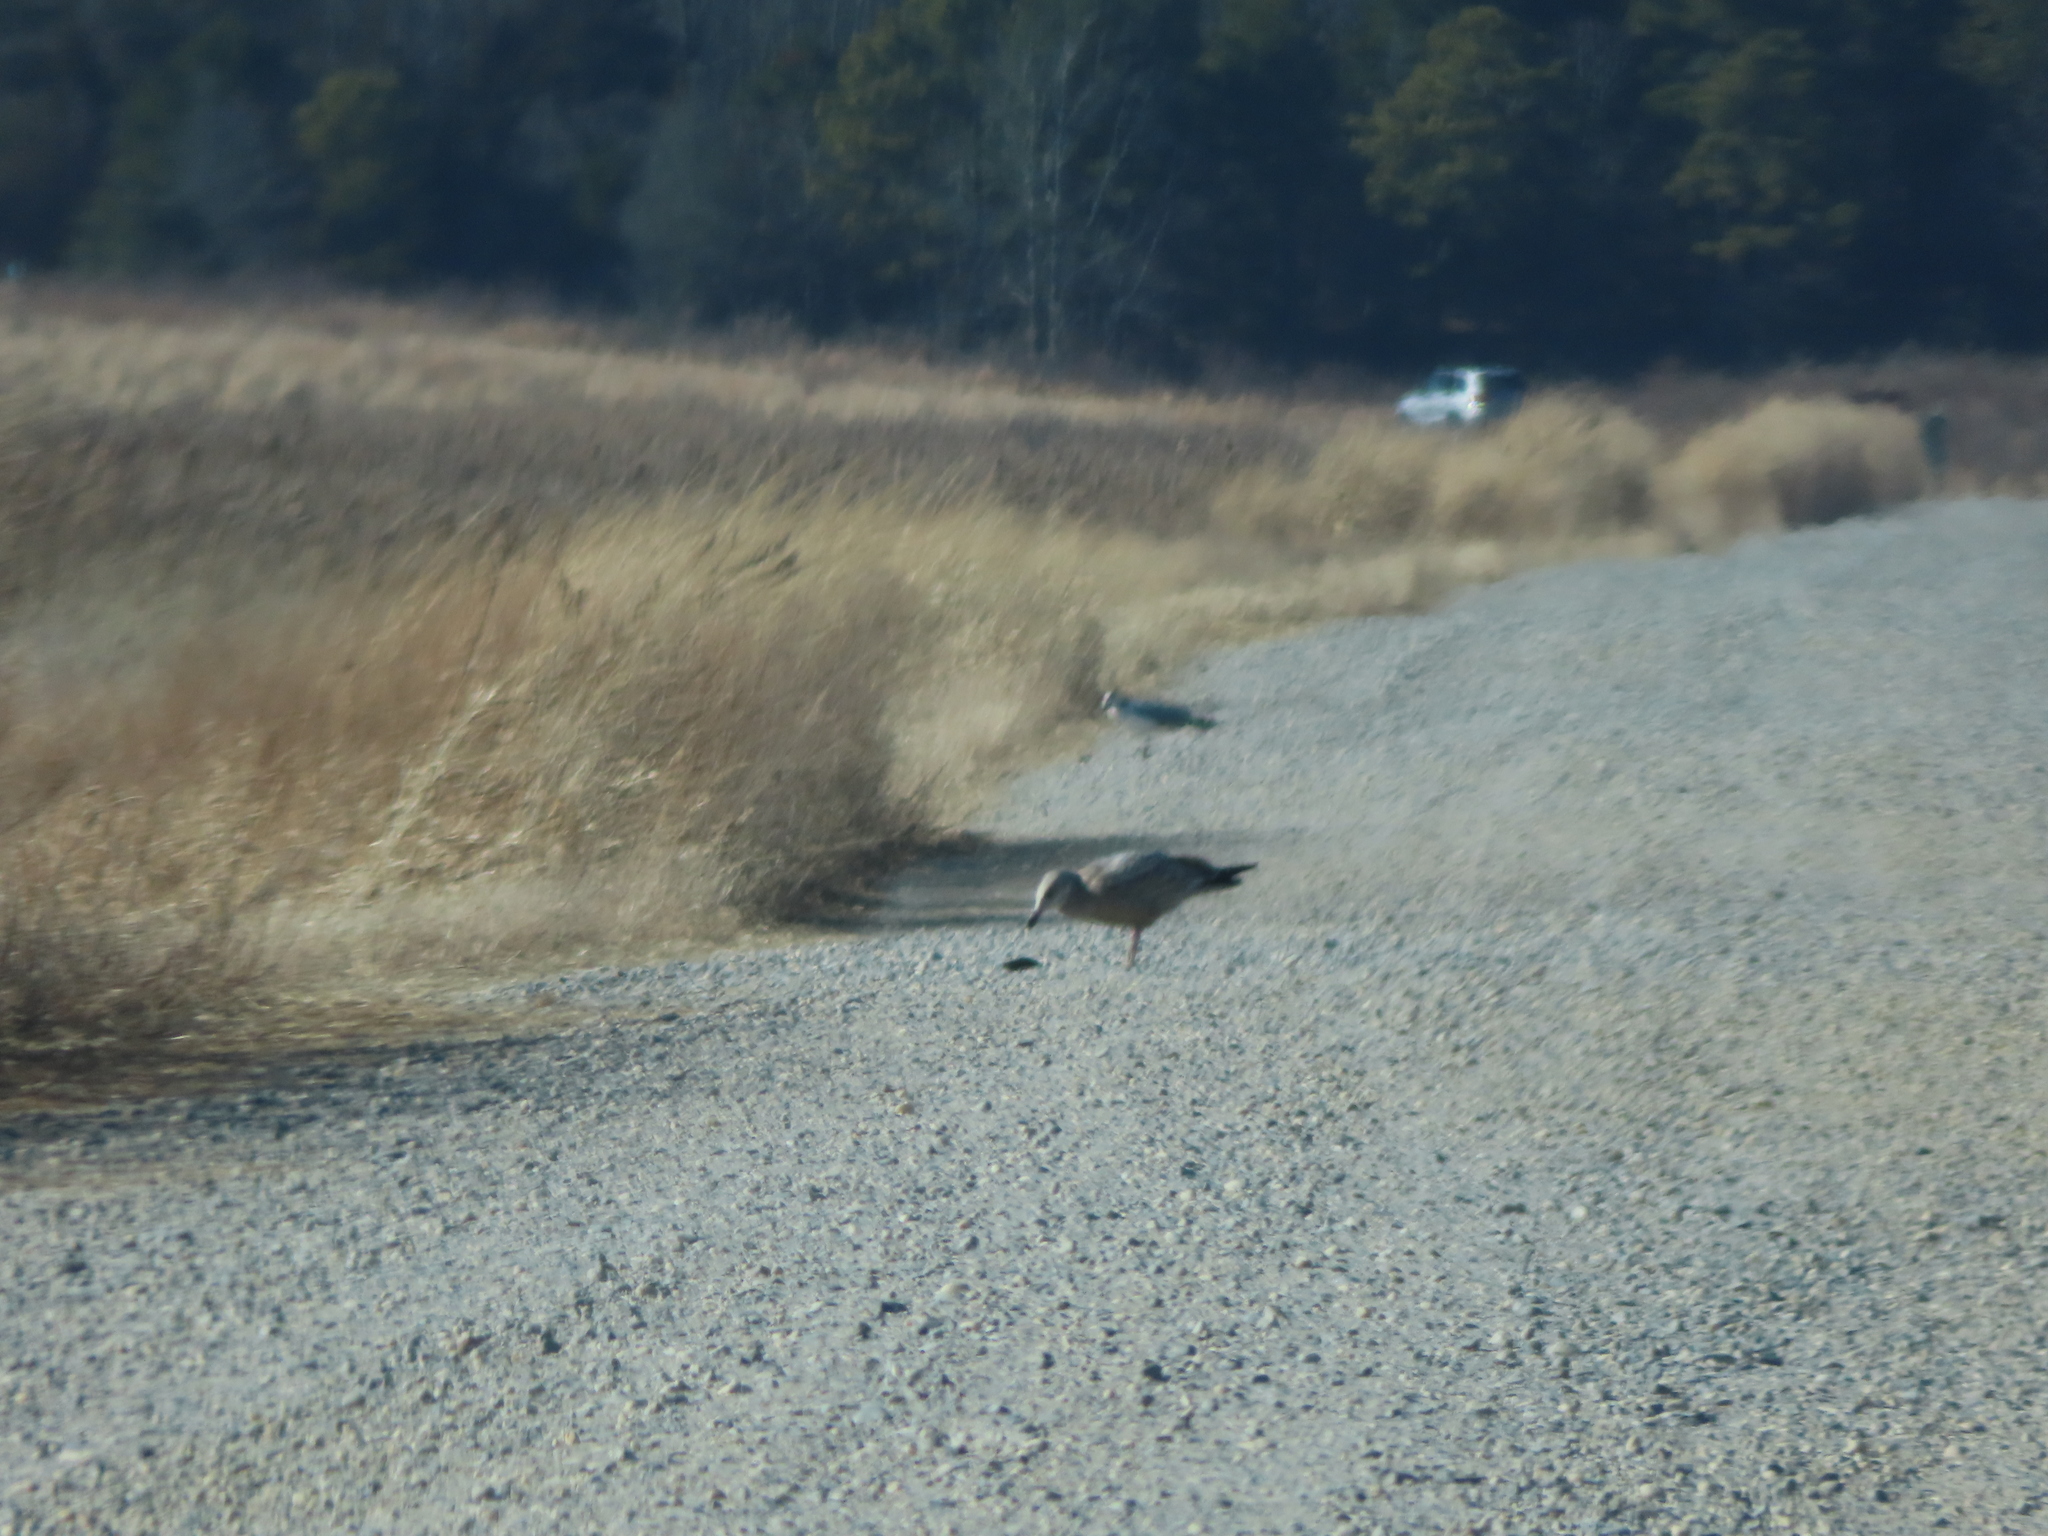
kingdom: Animalia
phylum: Chordata
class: Aves
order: Charadriiformes
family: Laridae
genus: Larus
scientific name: Larus argentatus
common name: Herring gull
